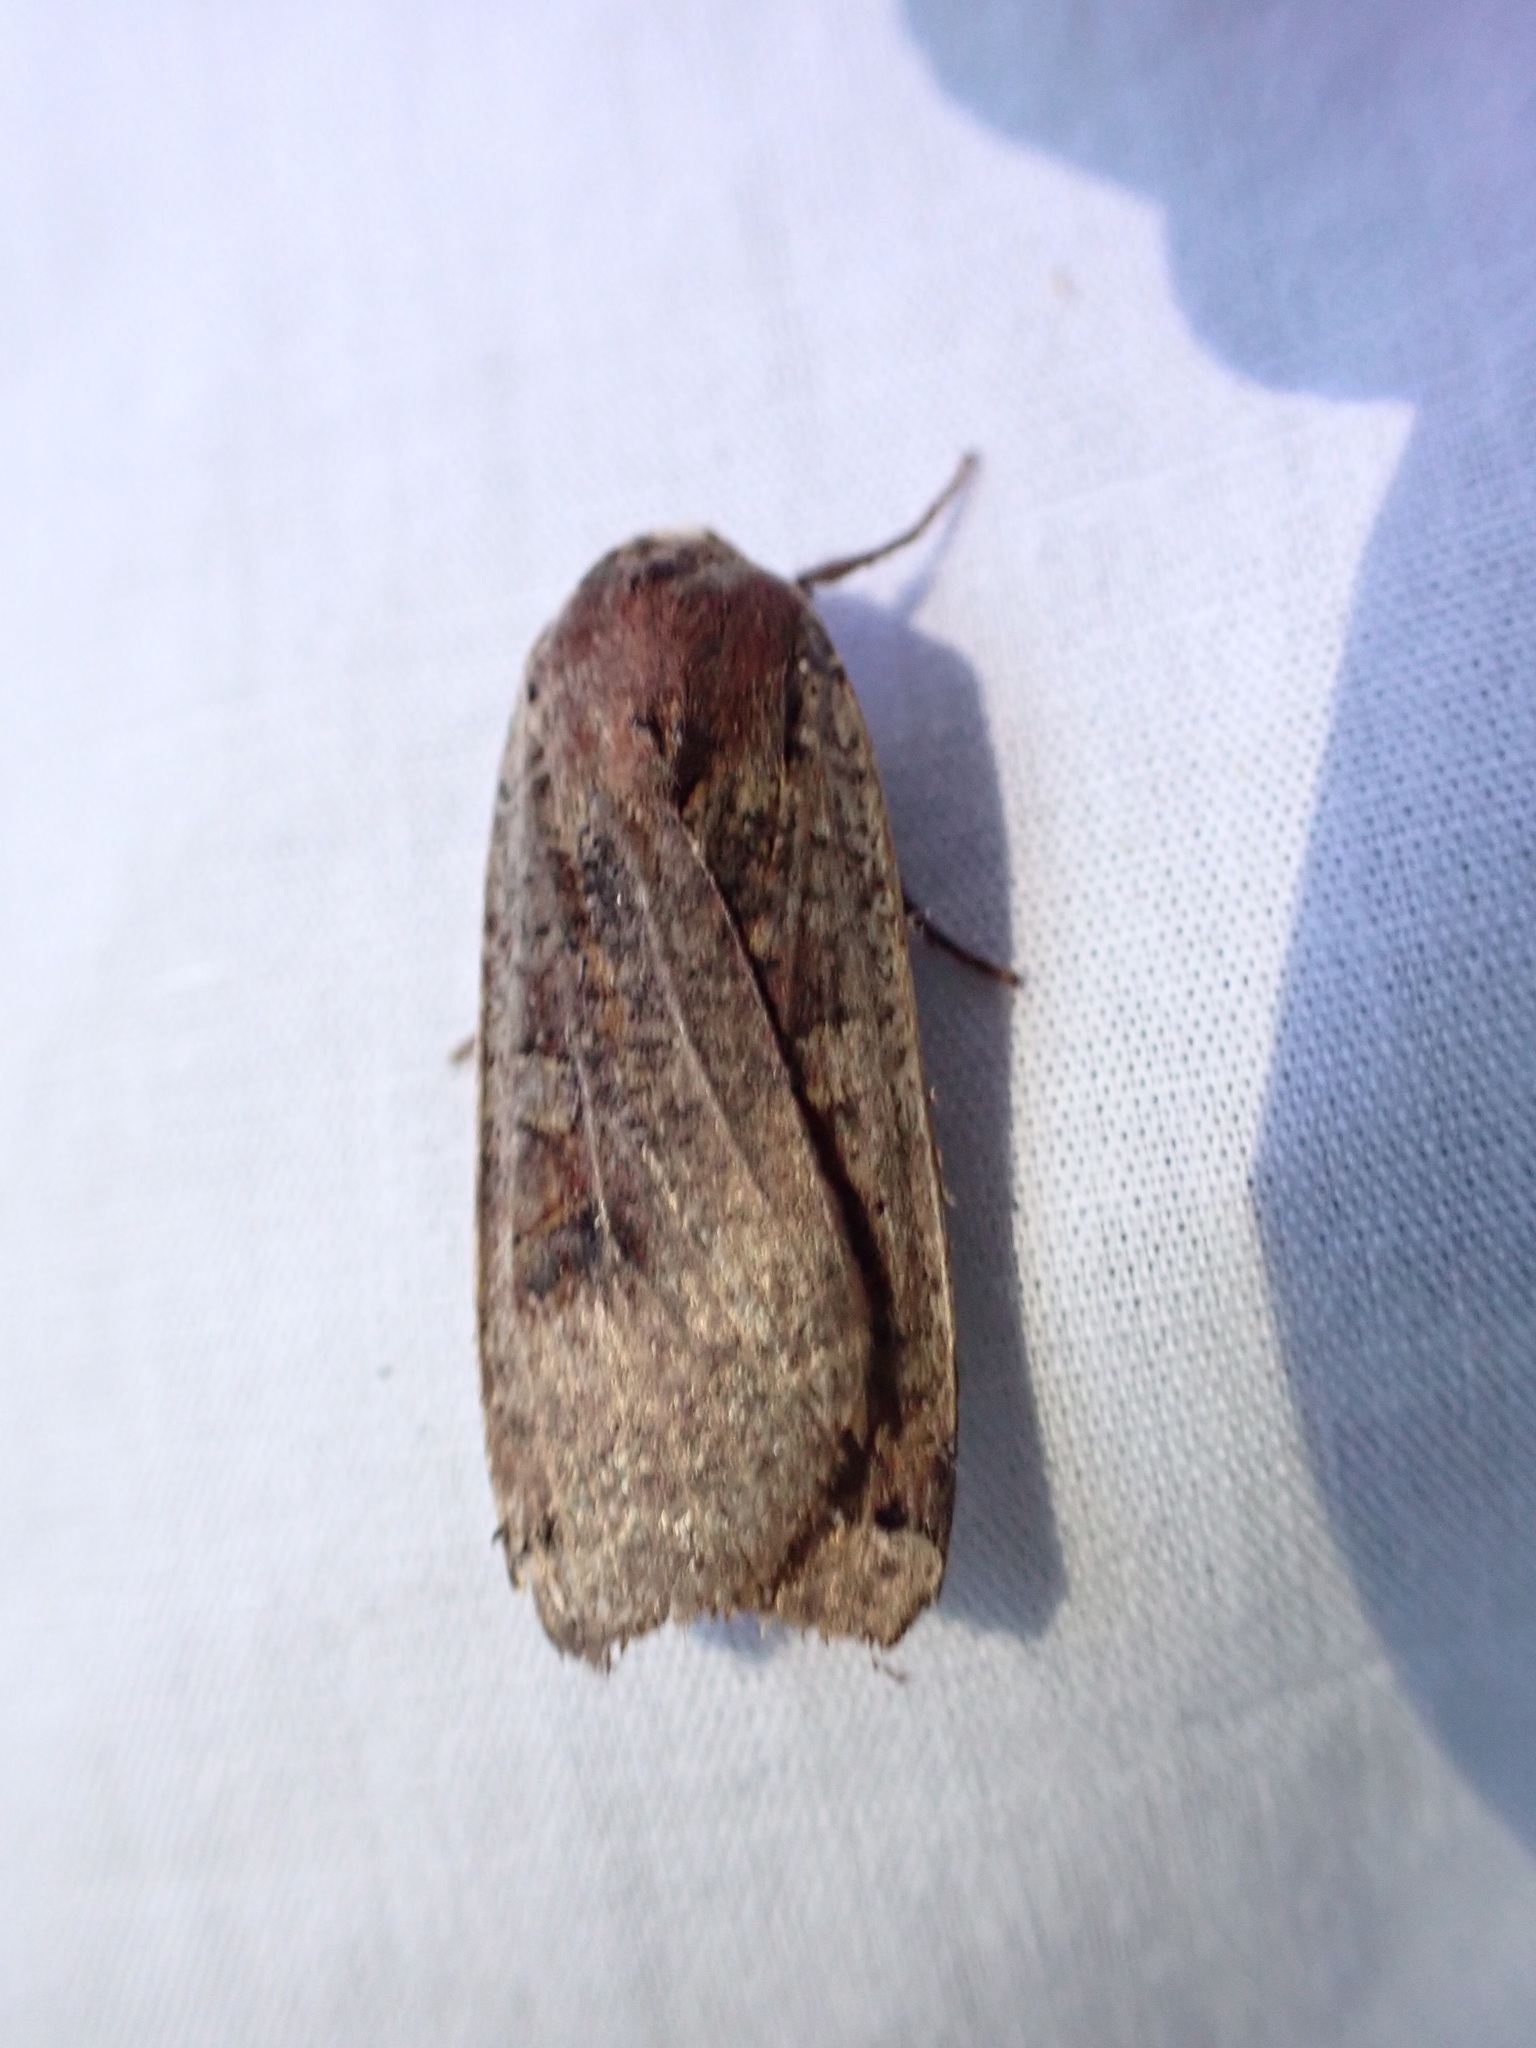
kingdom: Animalia
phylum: Arthropoda
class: Insecta
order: Lepidoptera
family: Noctuidae
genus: Noctua
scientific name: Noctua pronuba
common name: Large yellow underwing
